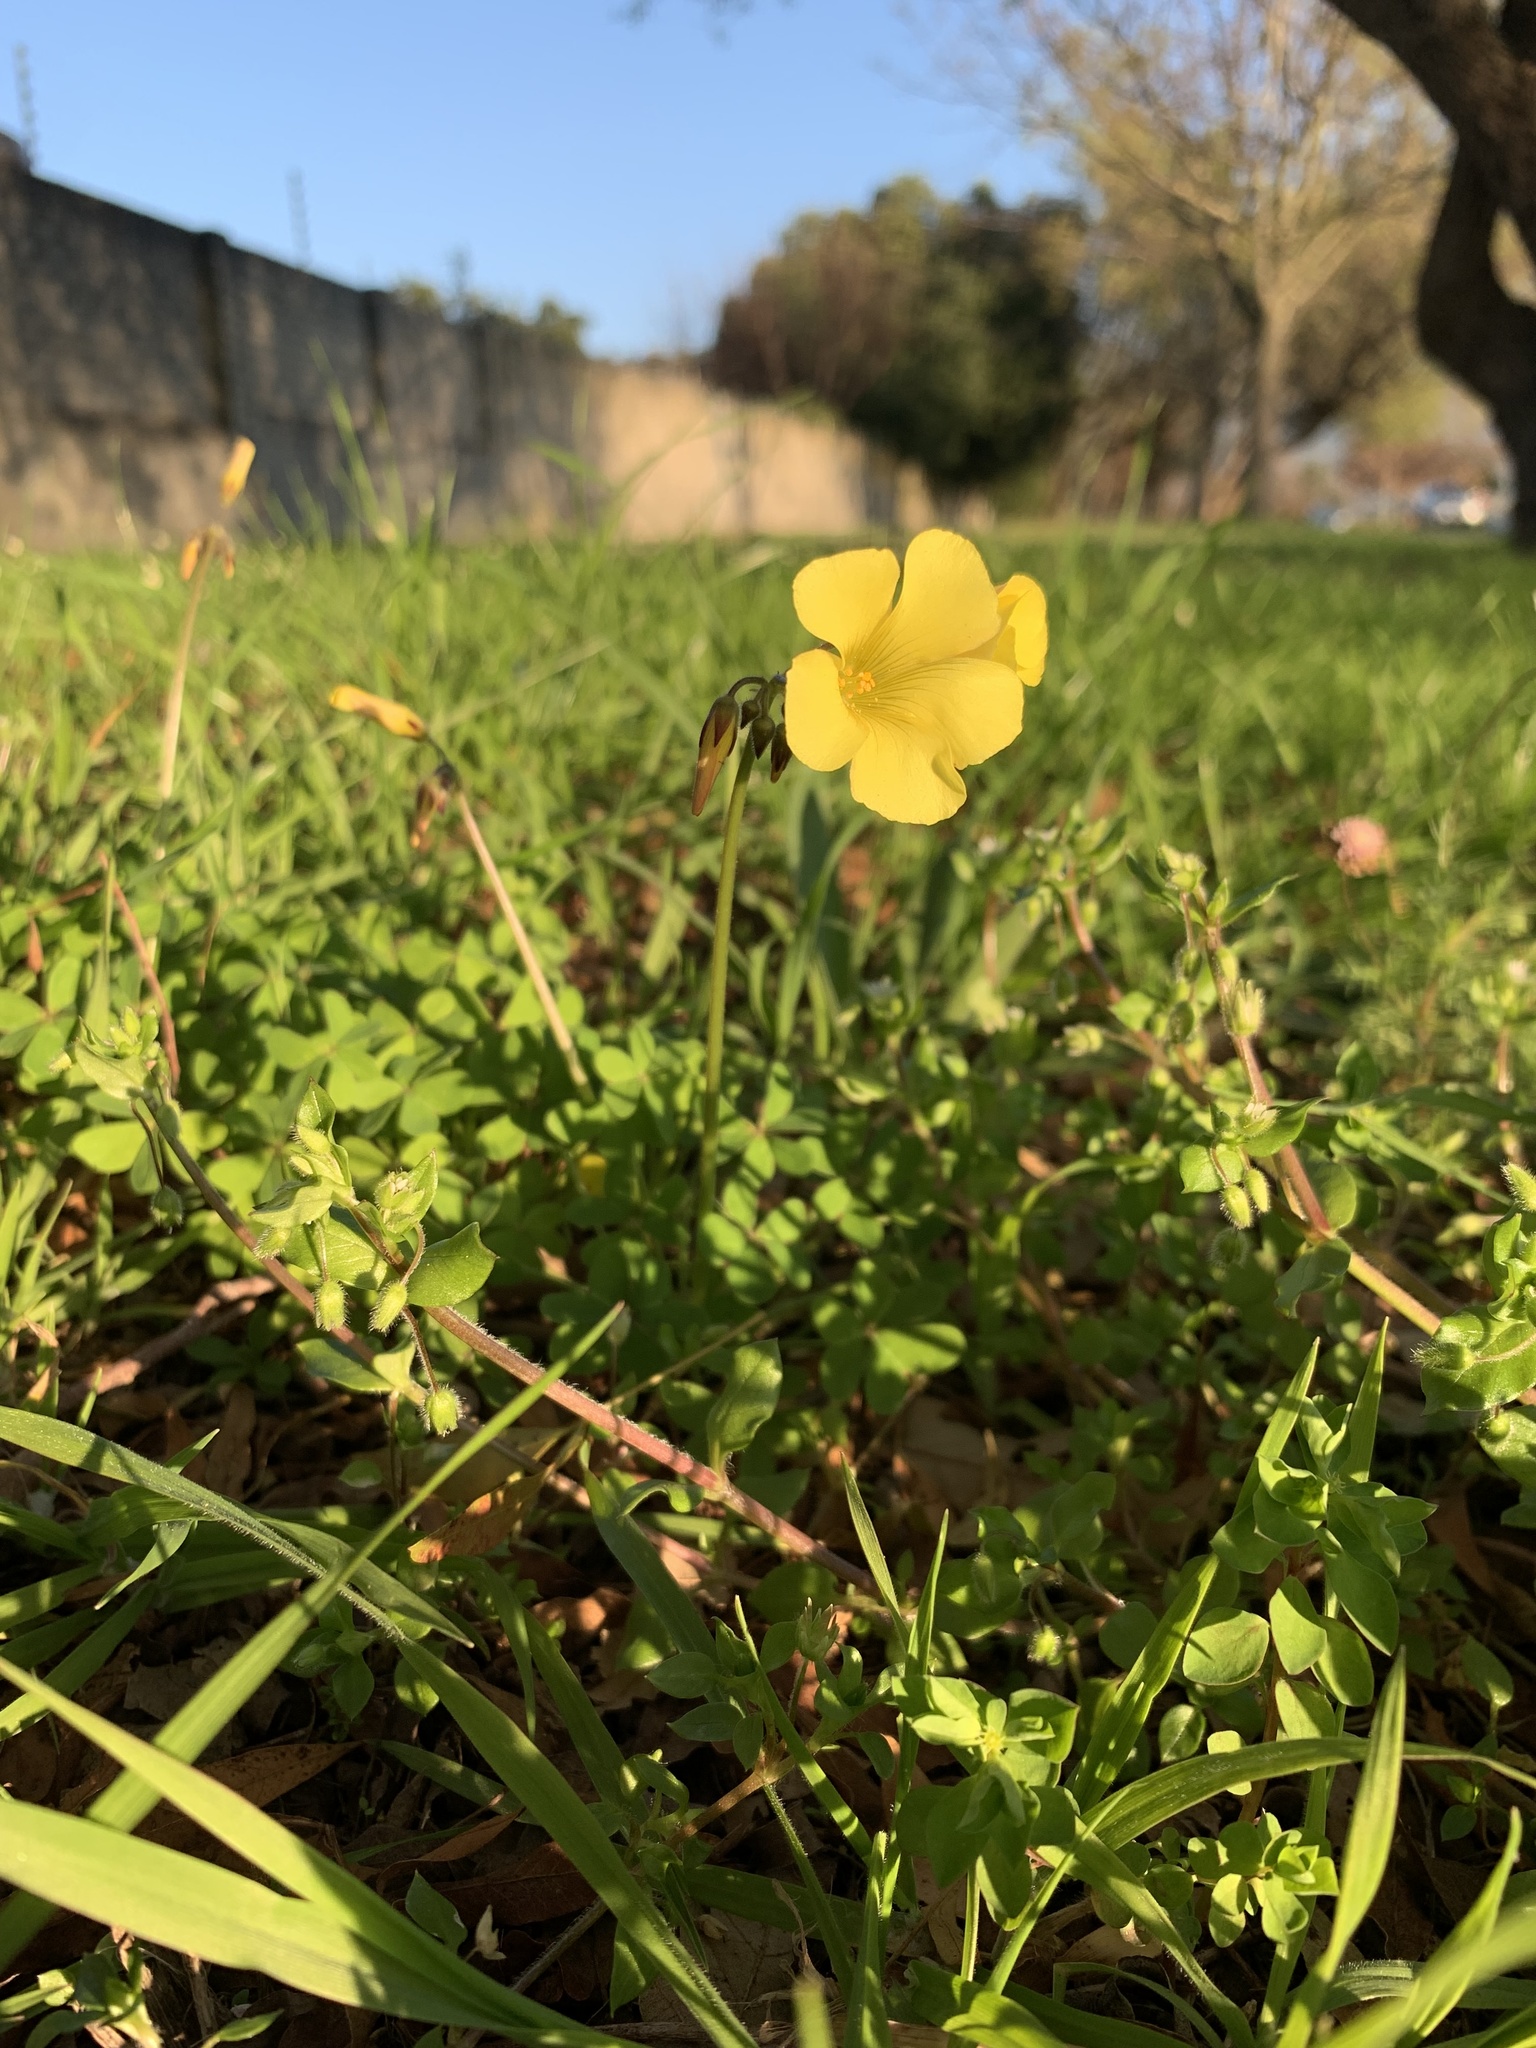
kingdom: Plantae
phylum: Tracheophyta
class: Magnoliopsida
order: Oxalidales
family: Oxalidaceae
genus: Oxalis
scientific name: Oxalis pes-caprae
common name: Bermuda-buttercup
